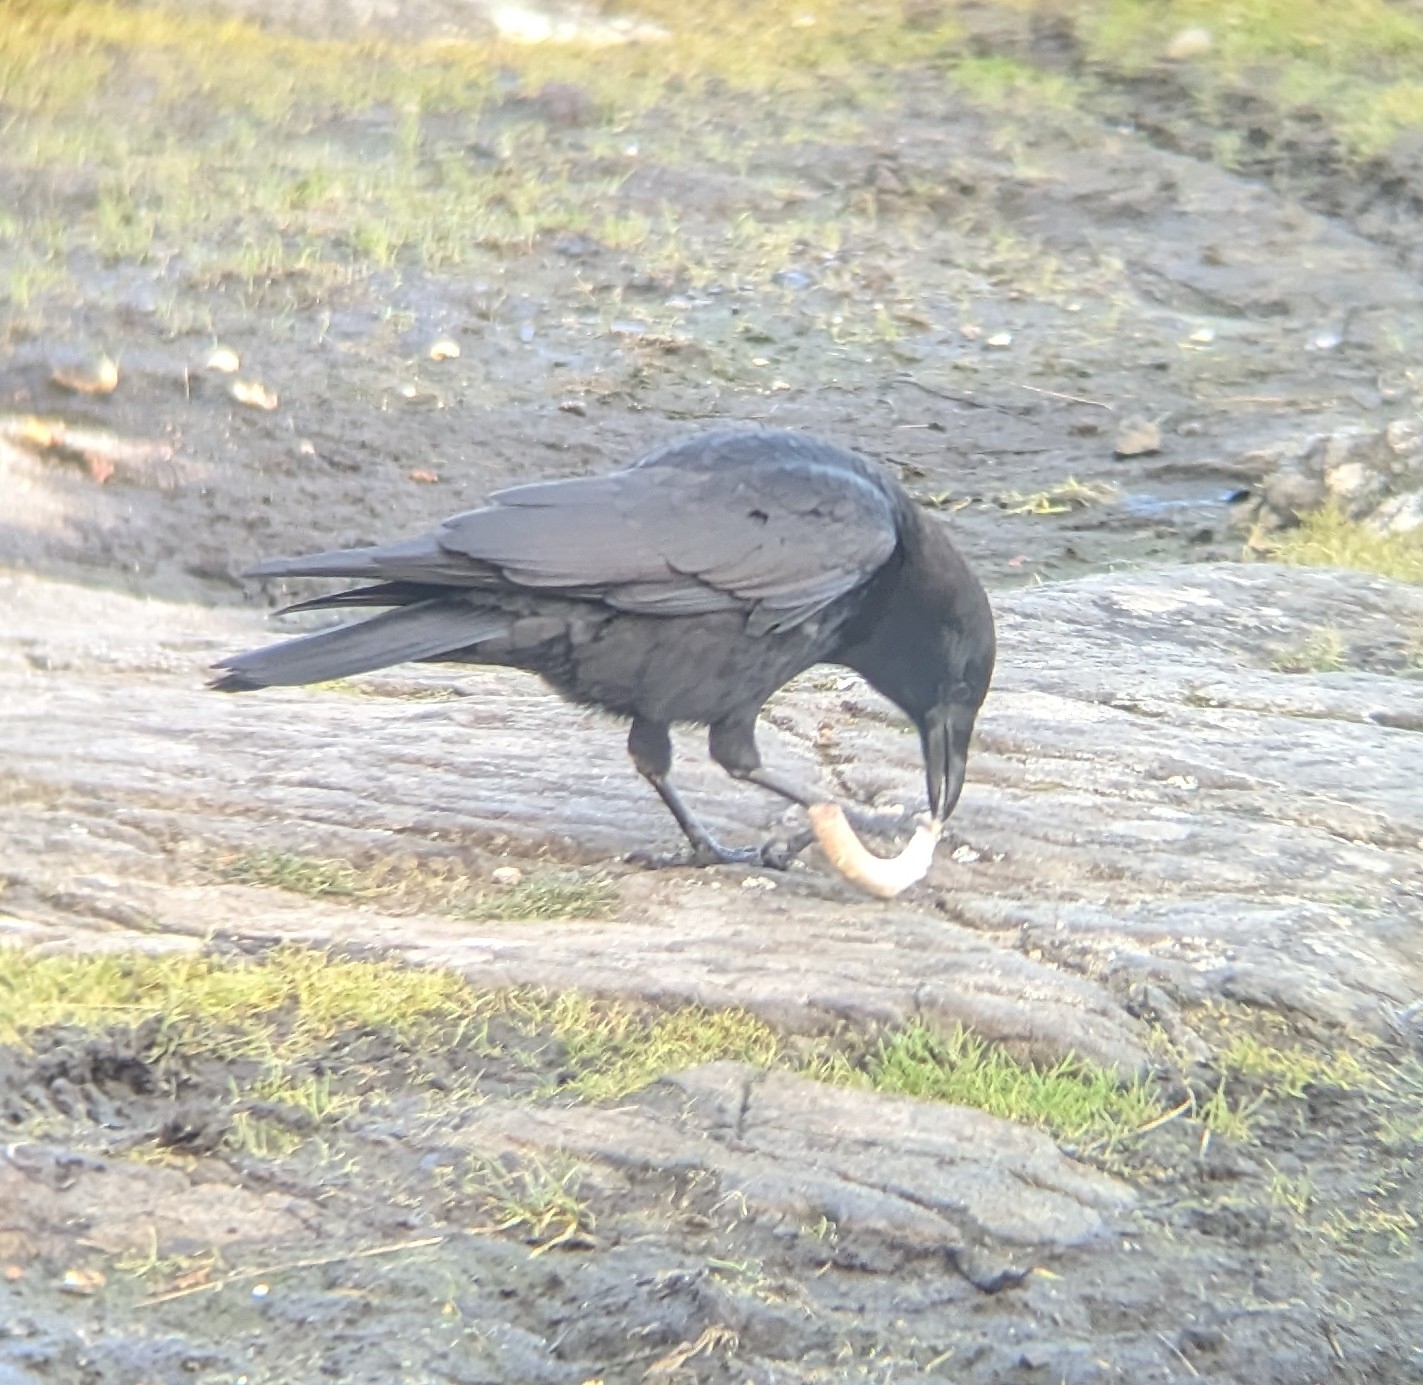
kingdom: Animalia
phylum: Chordata
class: Aves
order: Passeriformes
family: Corvidae
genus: Corvus
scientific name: Corvus brachyrhynchos
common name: American crow
